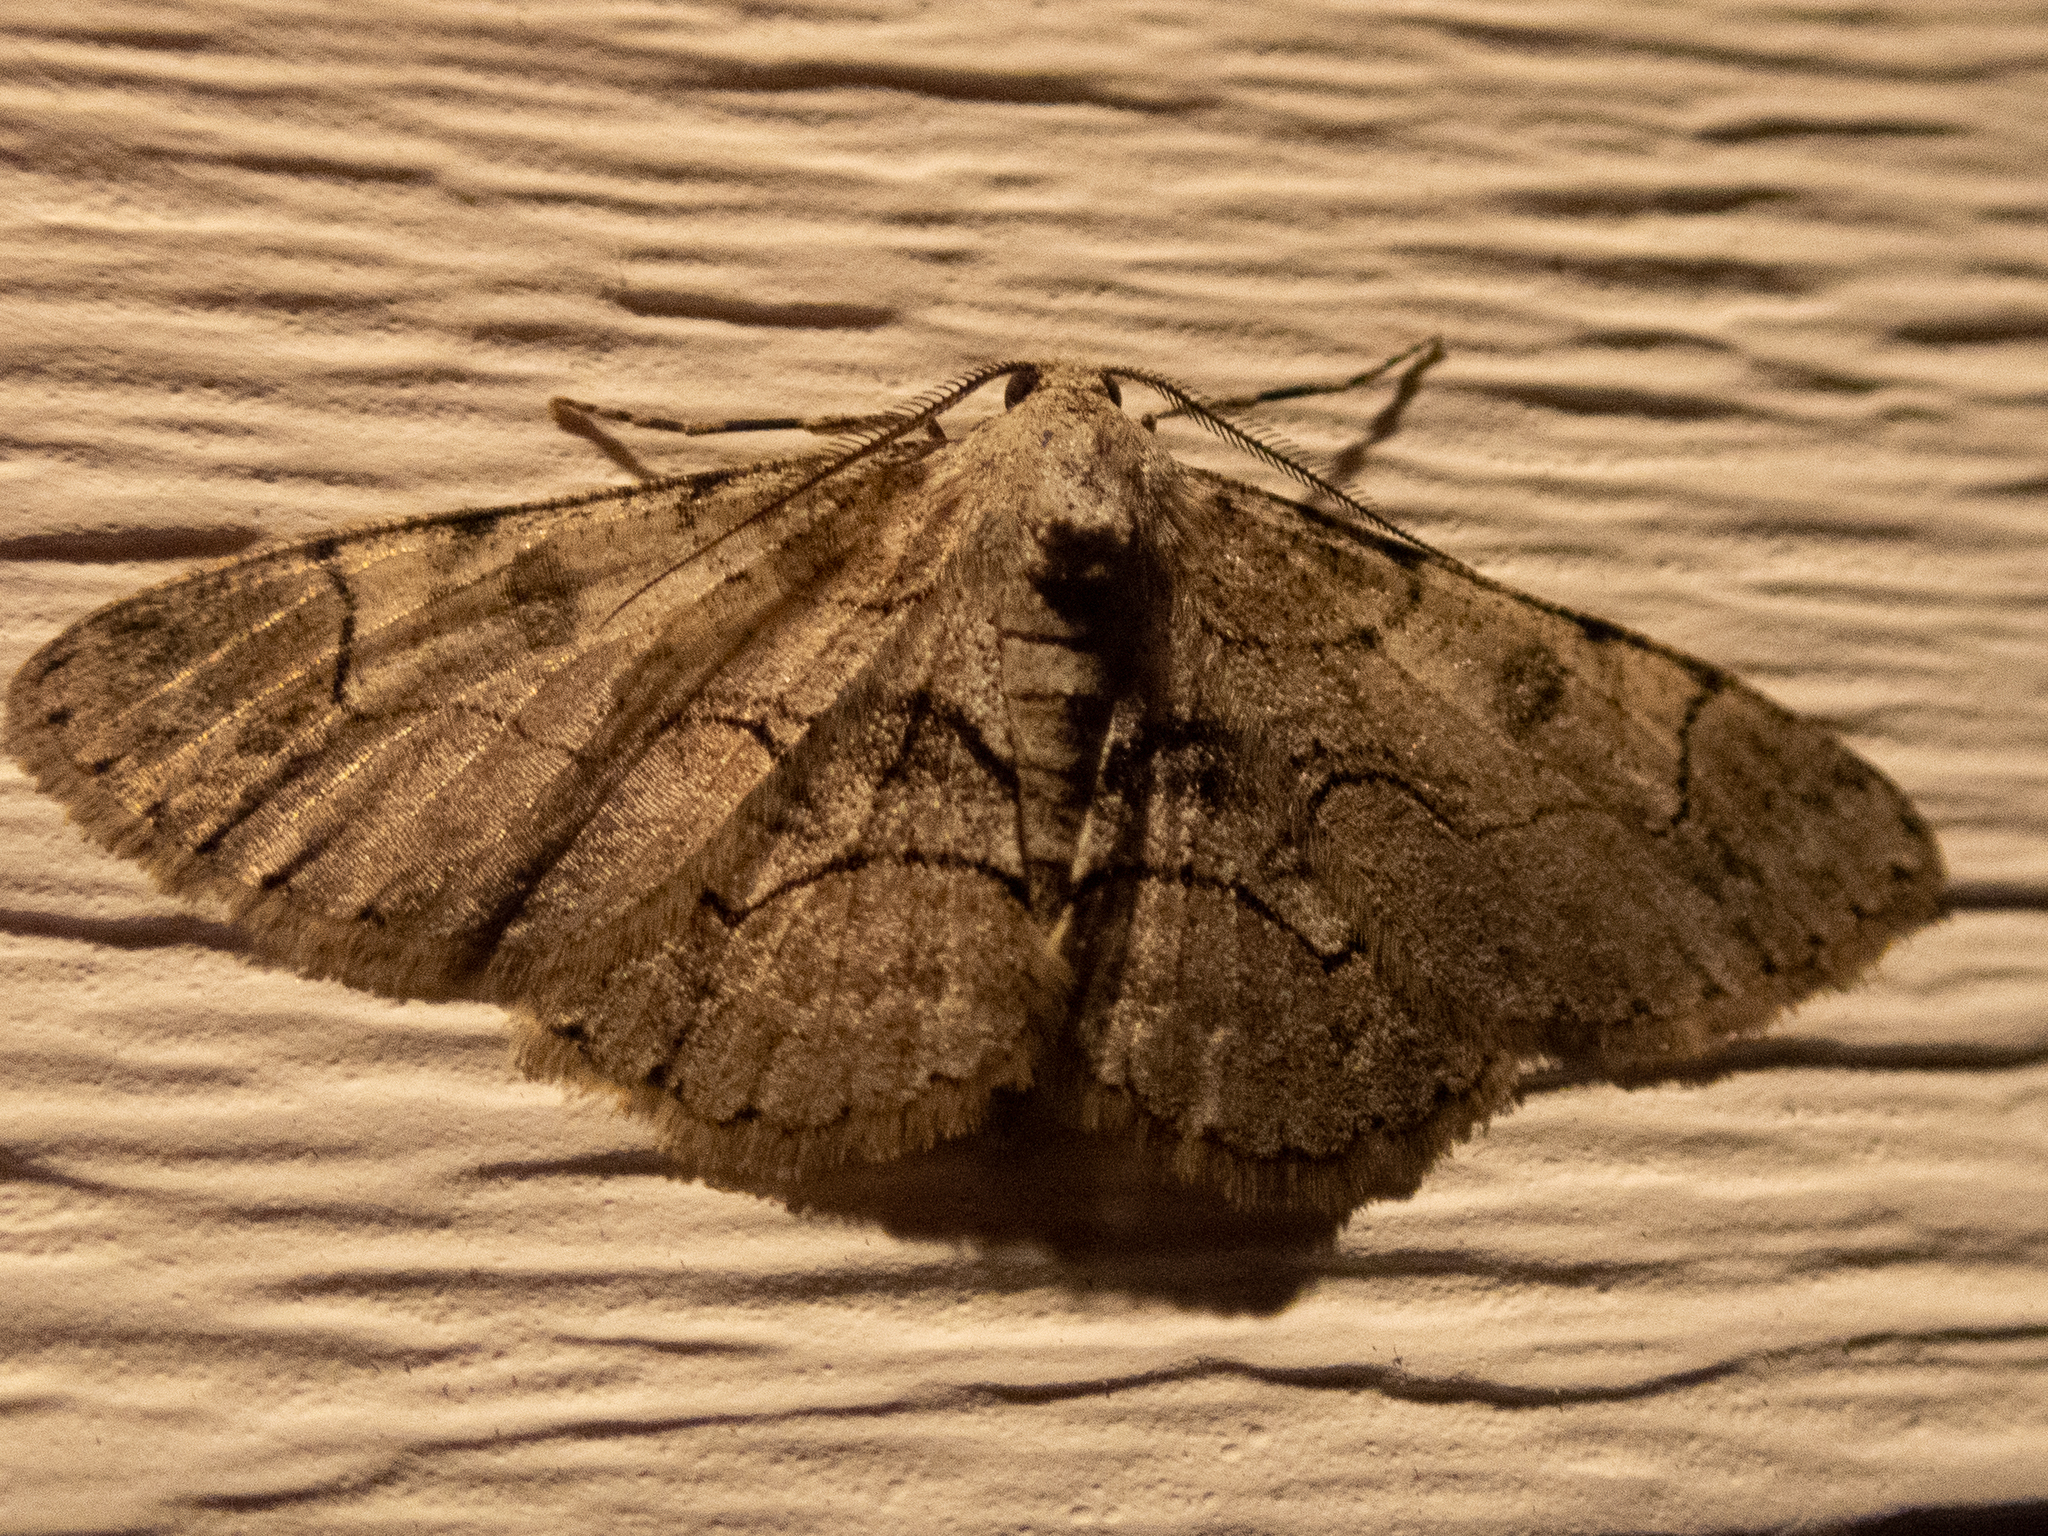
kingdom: Animalia
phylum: Arthropoda
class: Insecta
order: Lepidoptera
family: Geometridae
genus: Iridopsis
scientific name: Iridopsis larvaria
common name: Bent-line gray
